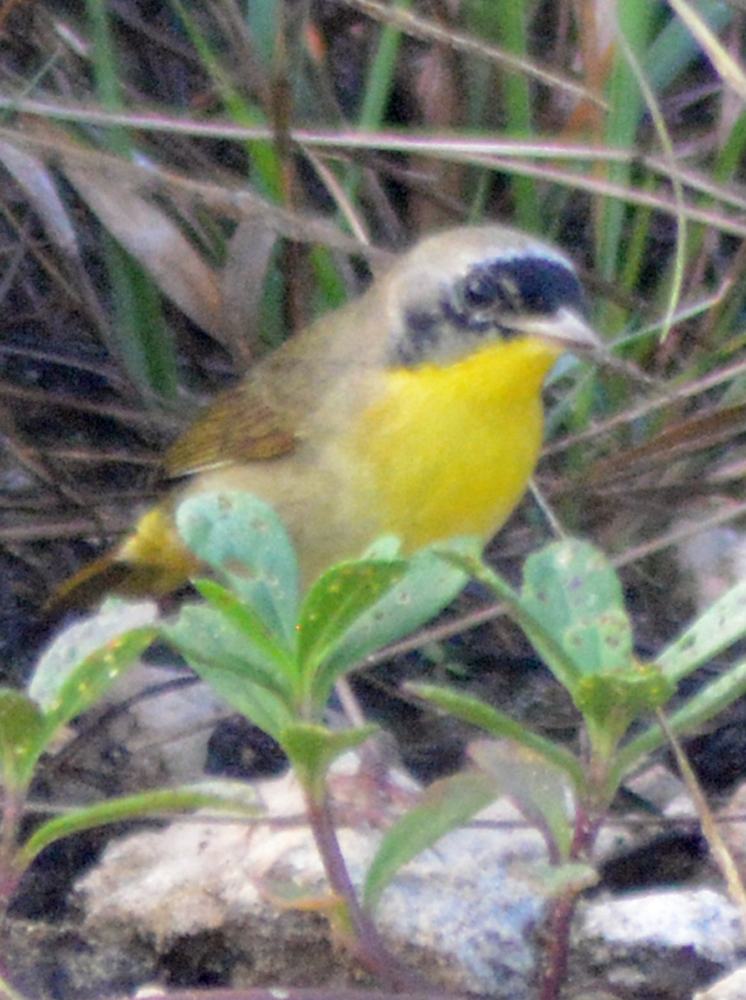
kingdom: Animalia
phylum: Chordata
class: Aves
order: Passeriformes
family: Parulidae
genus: Geothlypis
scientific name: Geothlypis trichas
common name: Common yellowthroat
